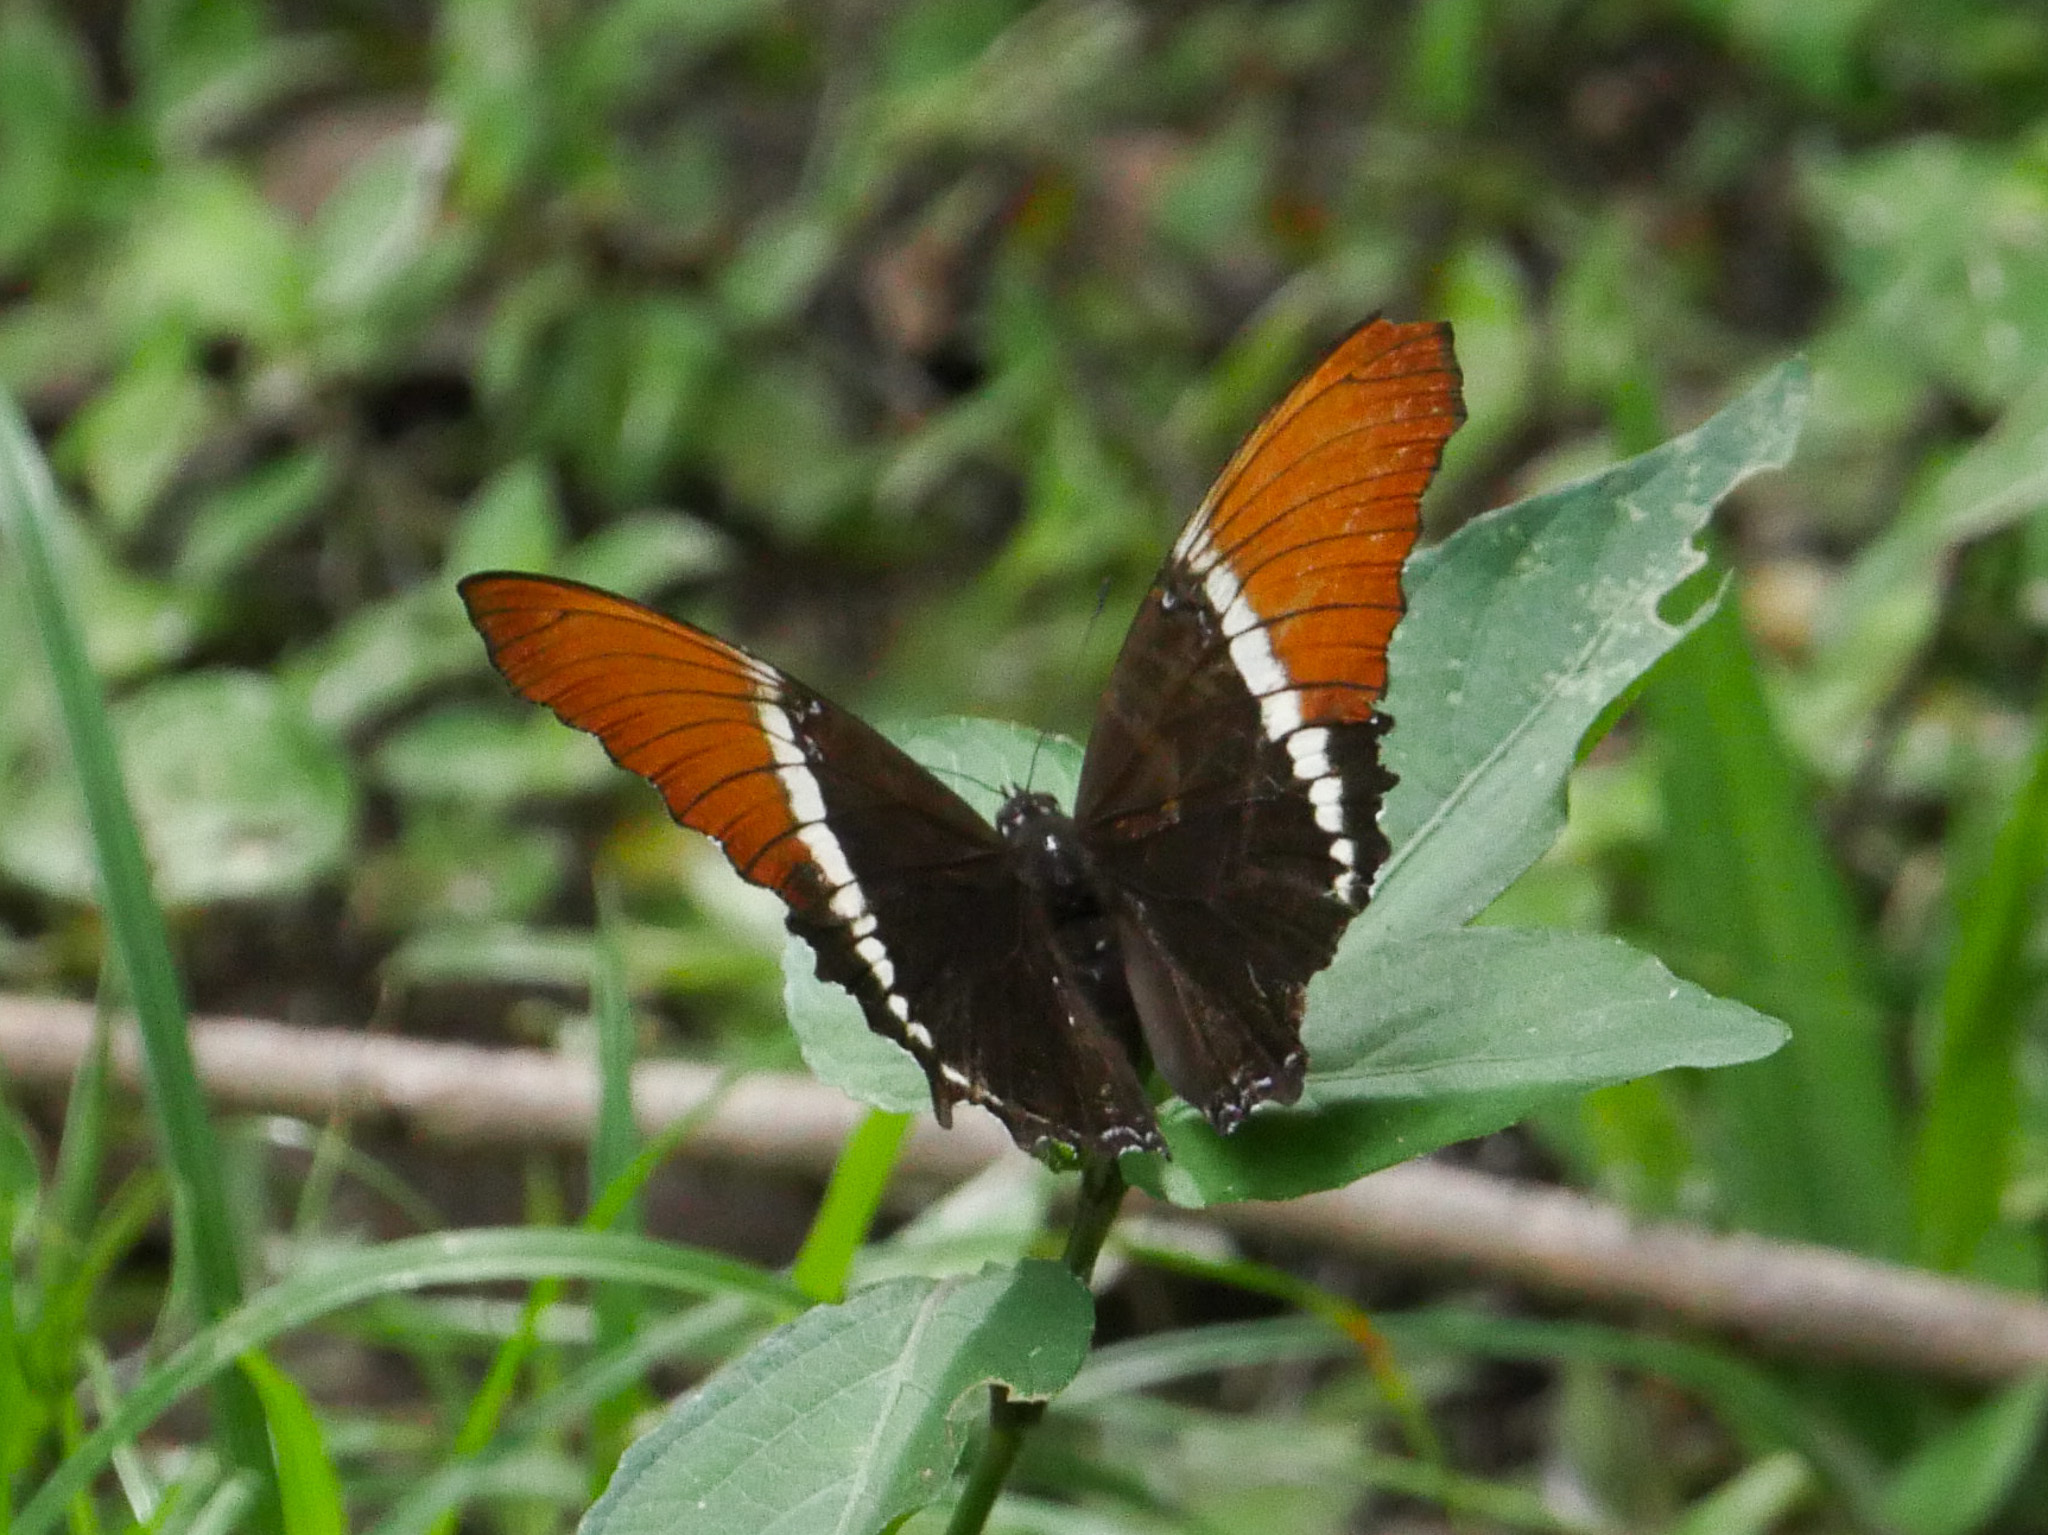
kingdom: Animalia
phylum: Arthropoda
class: Insecta
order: Lepidoptera
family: Nymphalidae
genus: Siproeta
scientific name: Siproeta epaphus
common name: Rusty-tipped page
